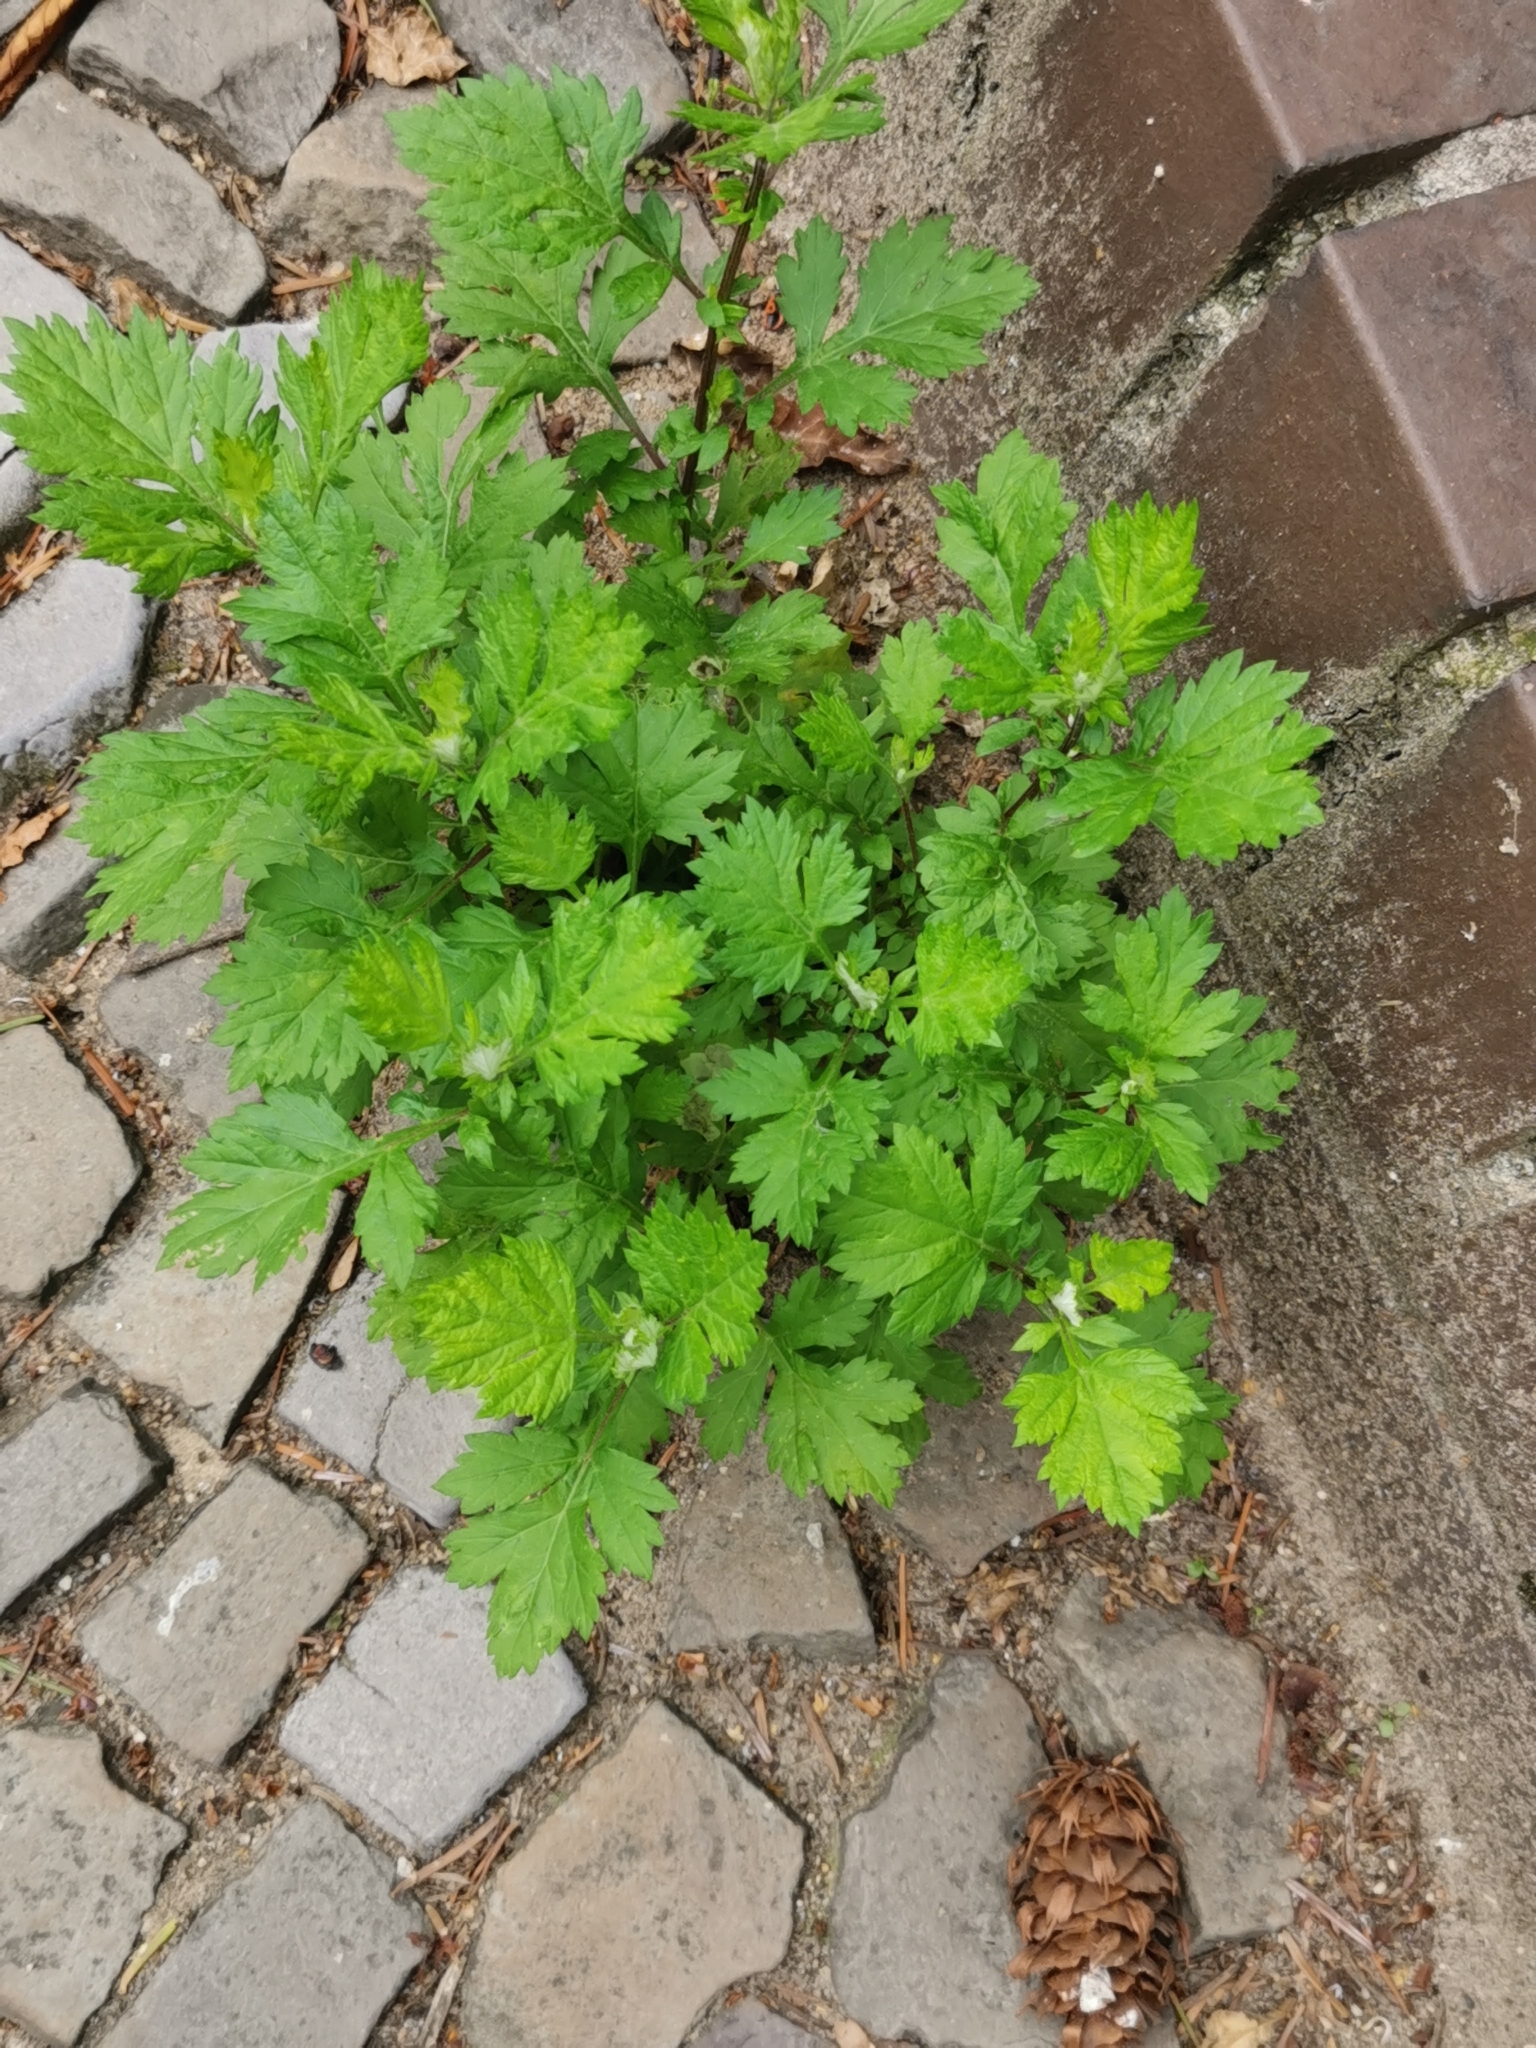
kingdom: Plantae
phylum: Tracheophyta
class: Magnoliopsida
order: Asterales
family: Asteraceae
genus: Artemisia
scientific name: Artemisia vulgaris
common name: Mugwort
